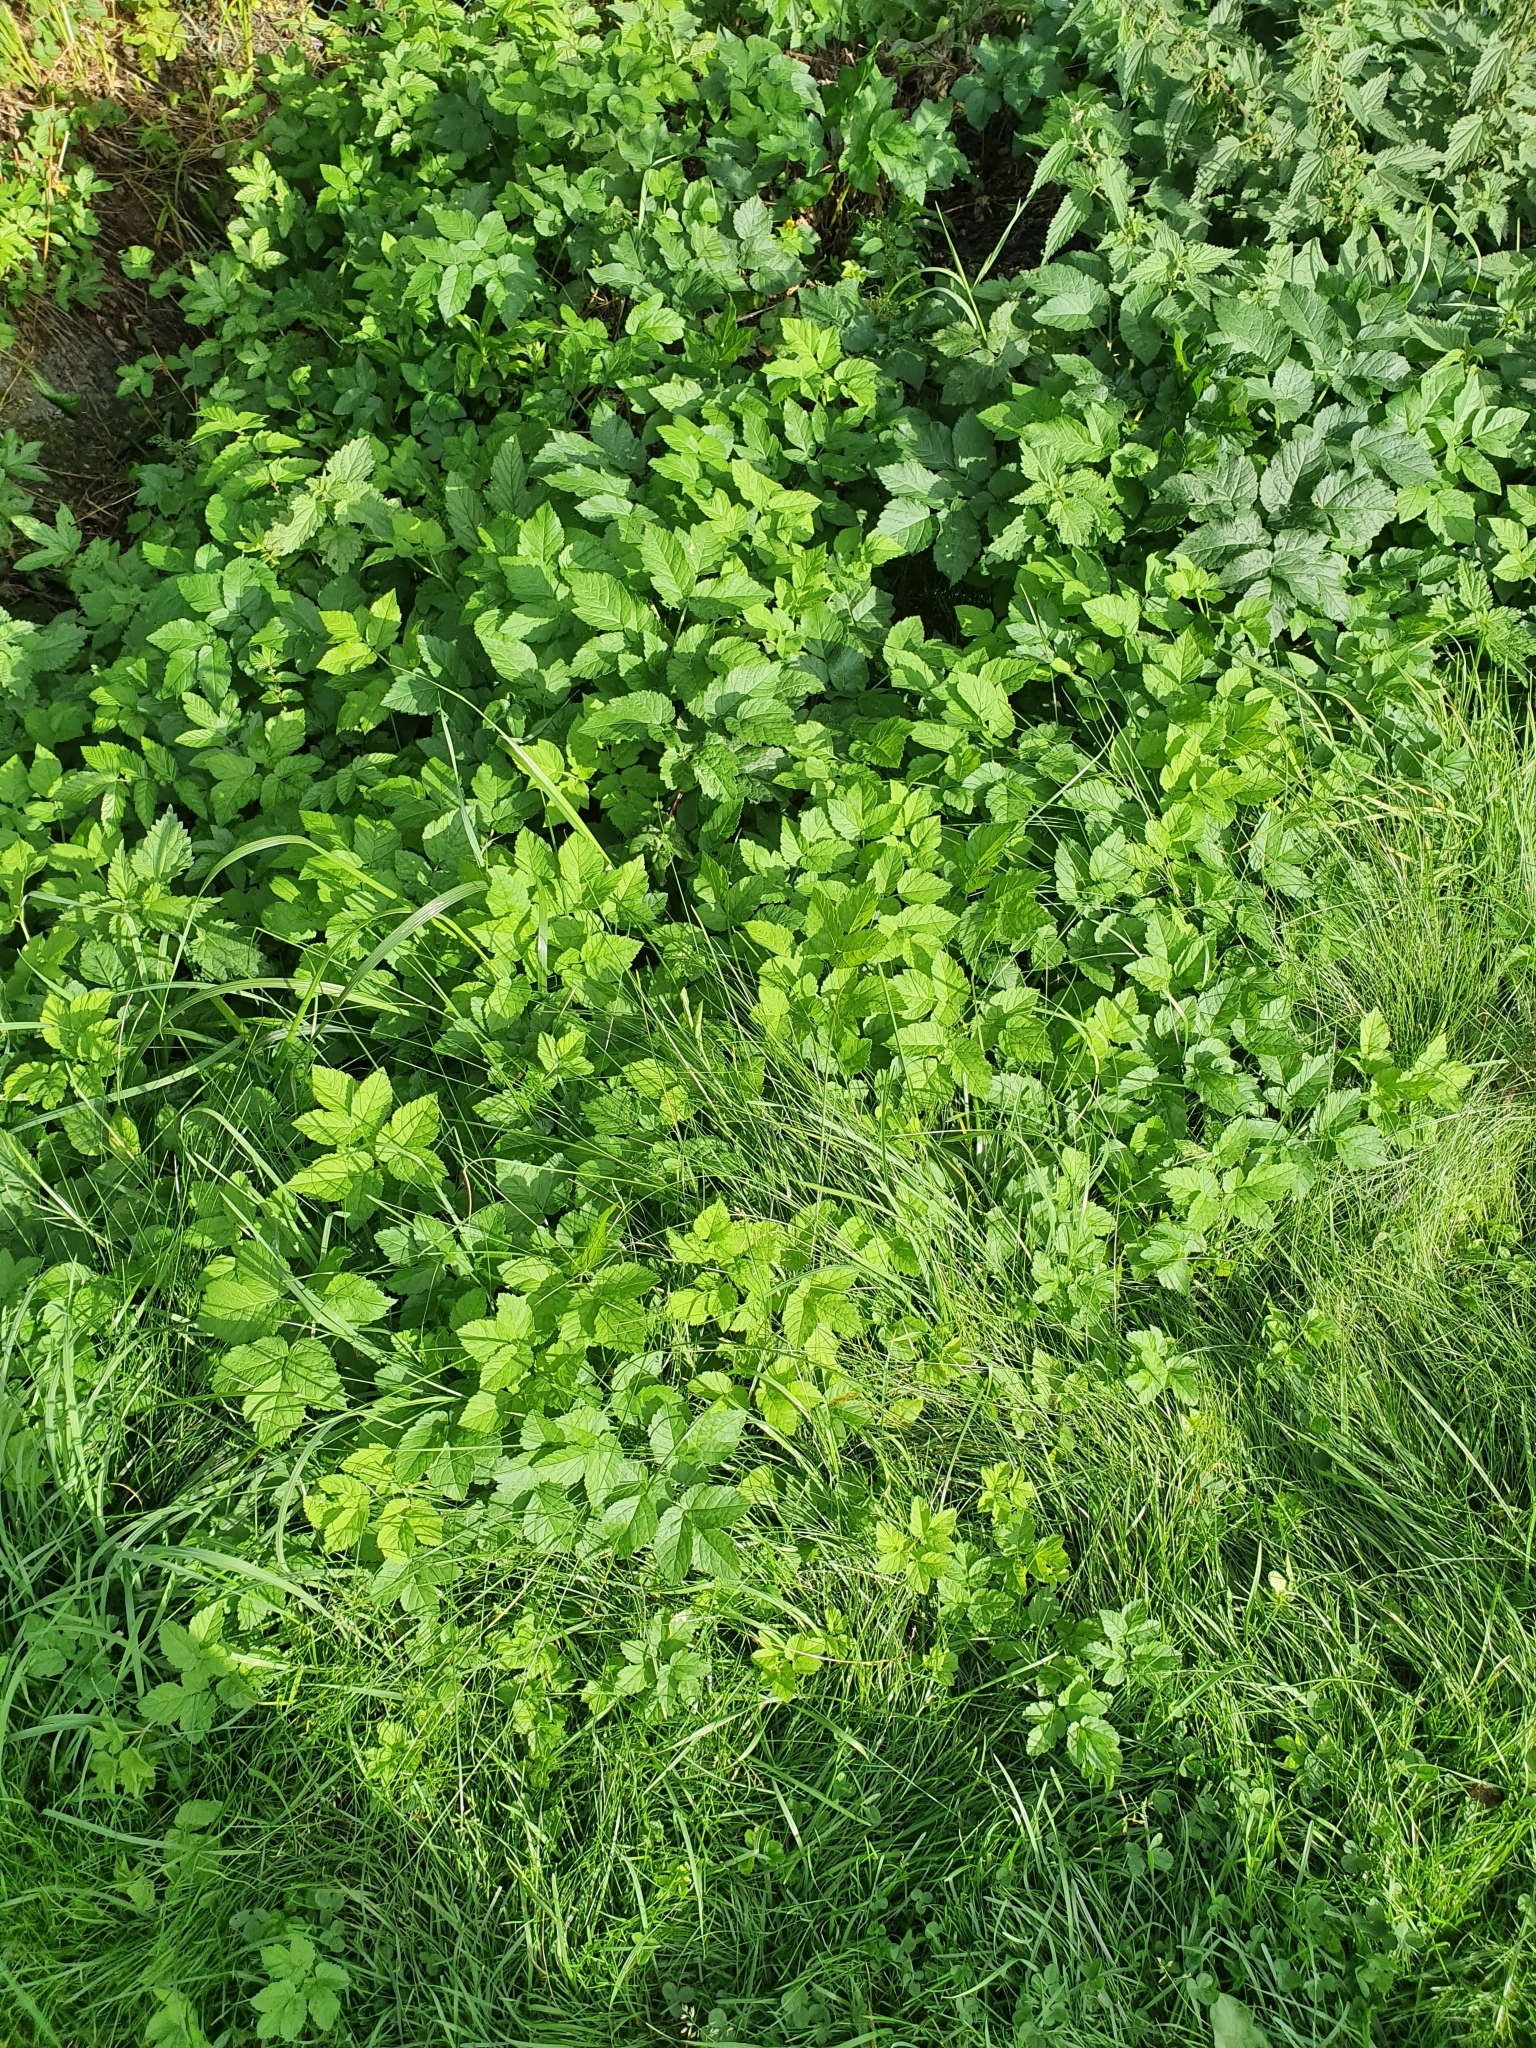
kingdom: Plantae
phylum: Tracheophyta
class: Magnoliopsida
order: Apiales
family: Apiaceae
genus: Aegopodium
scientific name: Aegopodium podagraria
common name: Ground-elder
